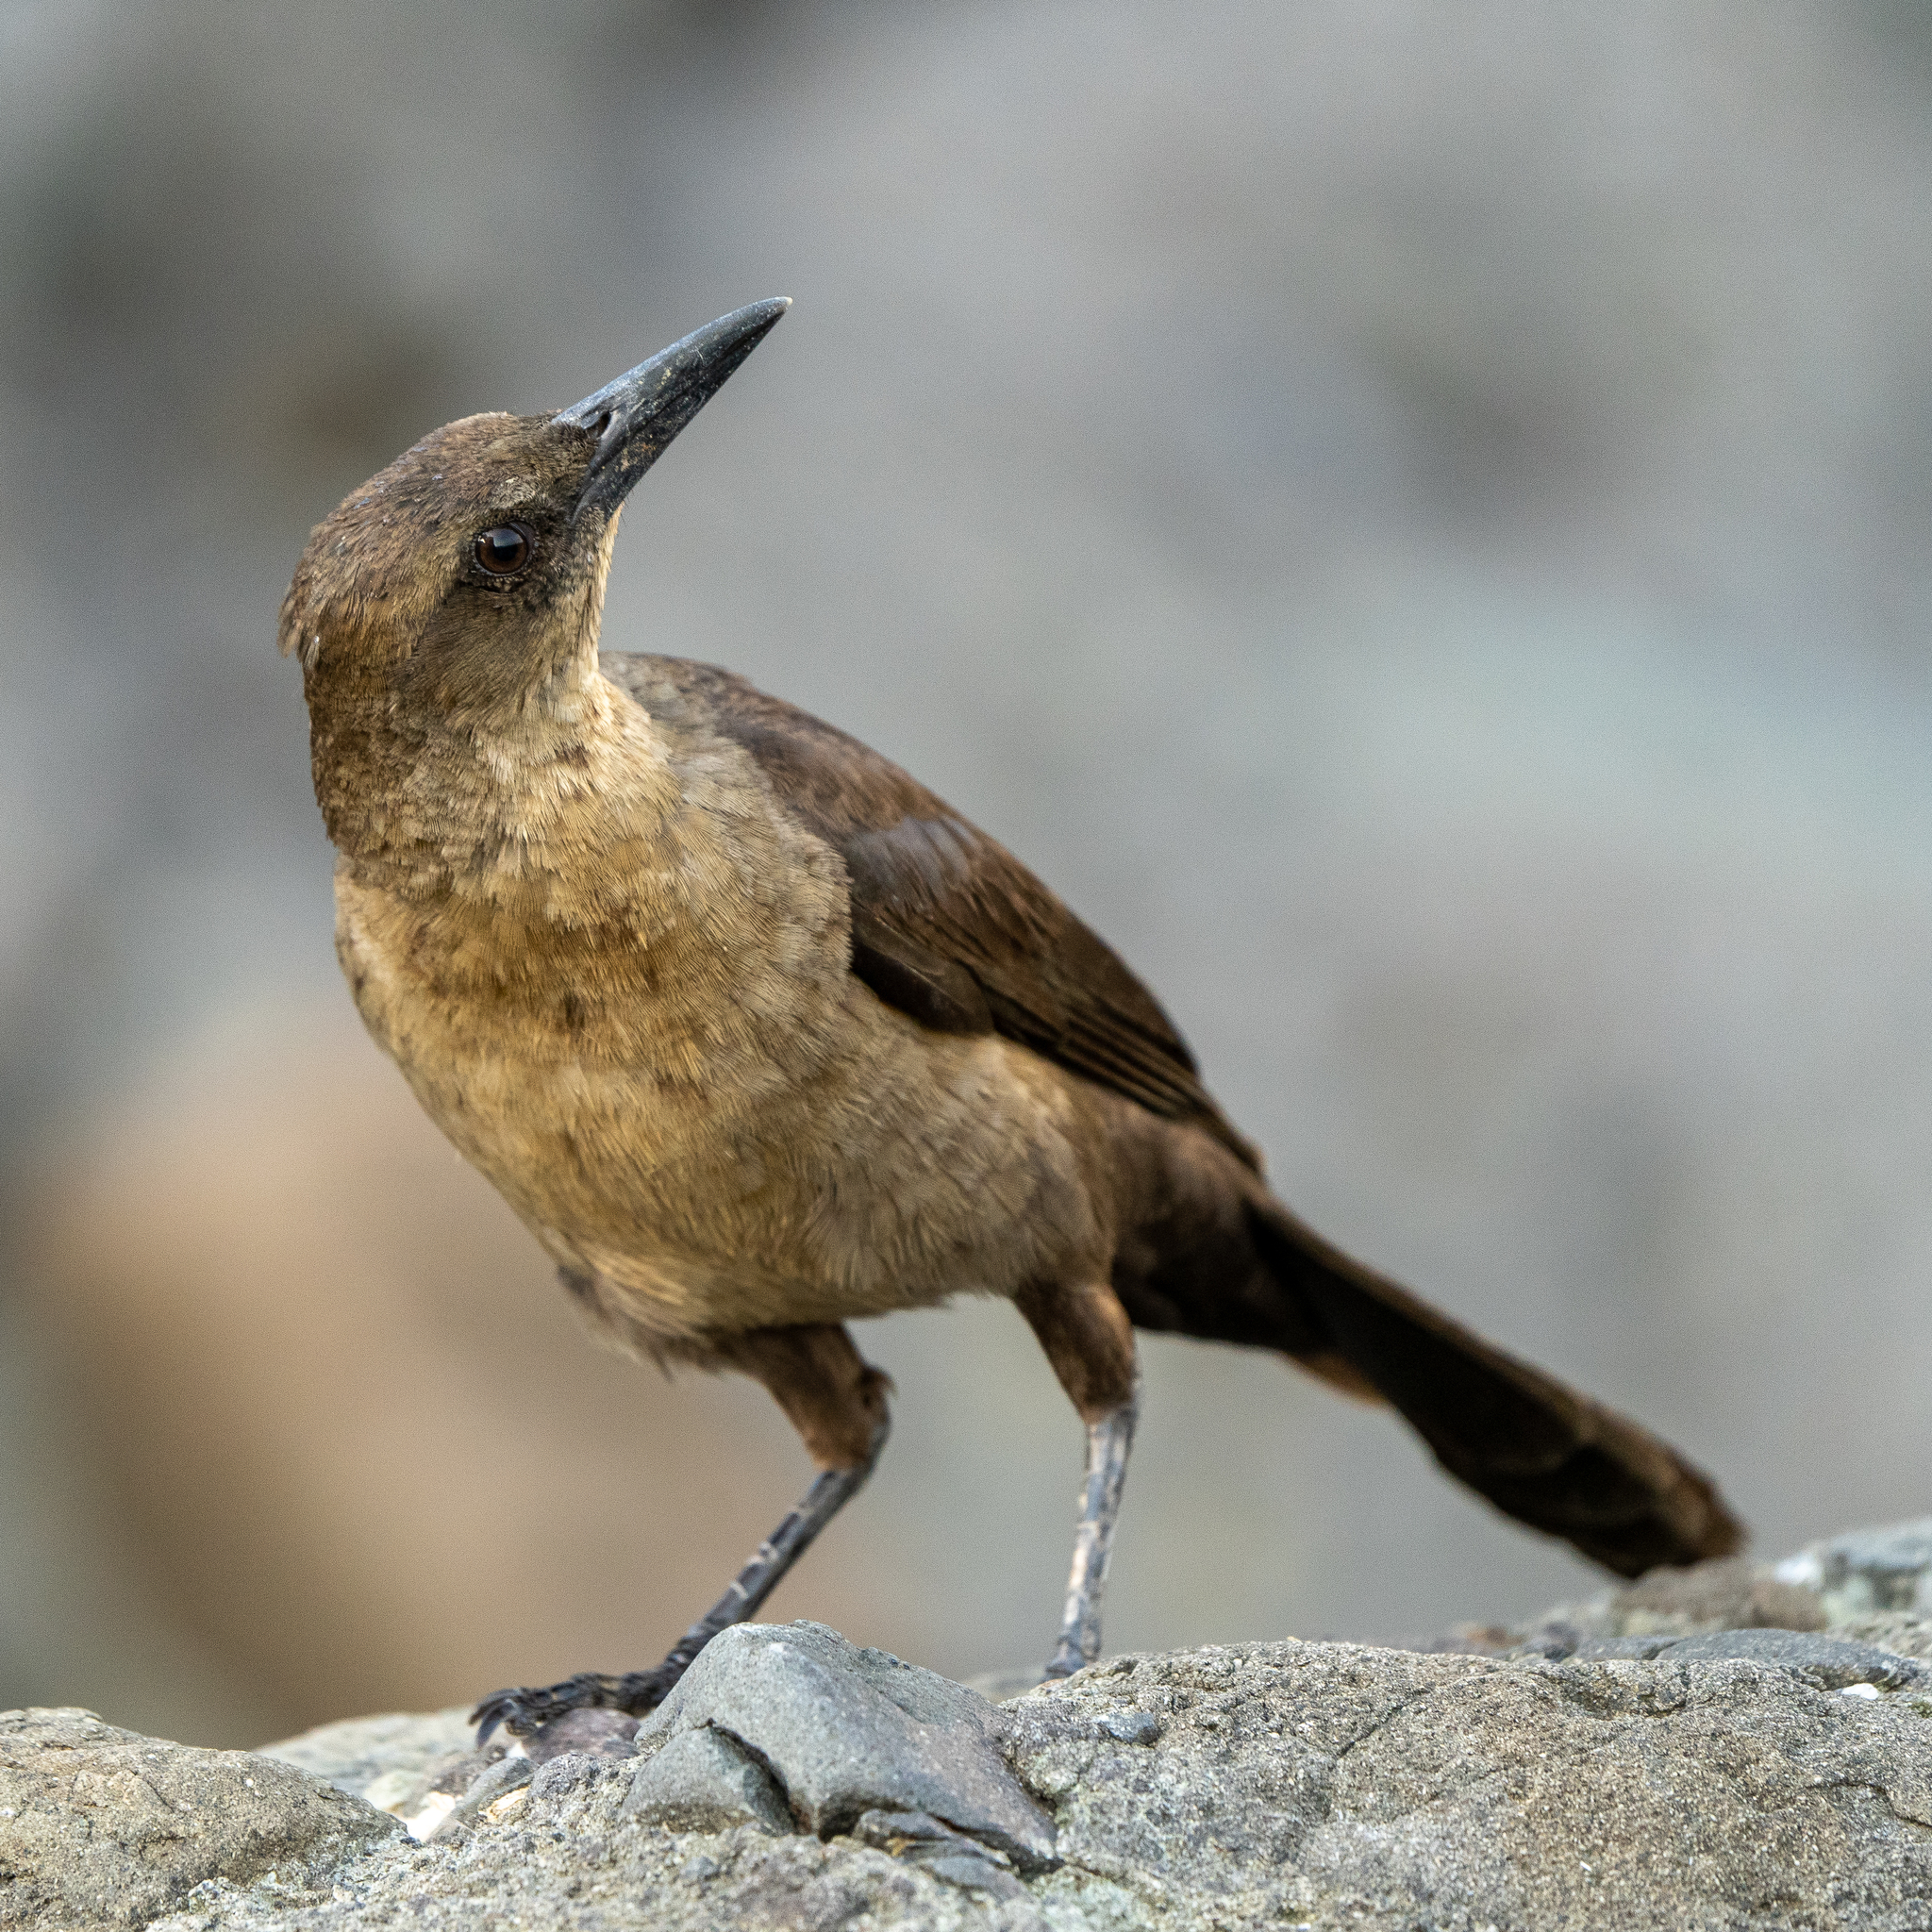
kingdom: Animalia
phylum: Chordata
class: Aves
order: Passeriformes
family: Icteridae
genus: Quiscalus
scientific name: Quiscalus mexicanus
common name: Great-tailed grackle
